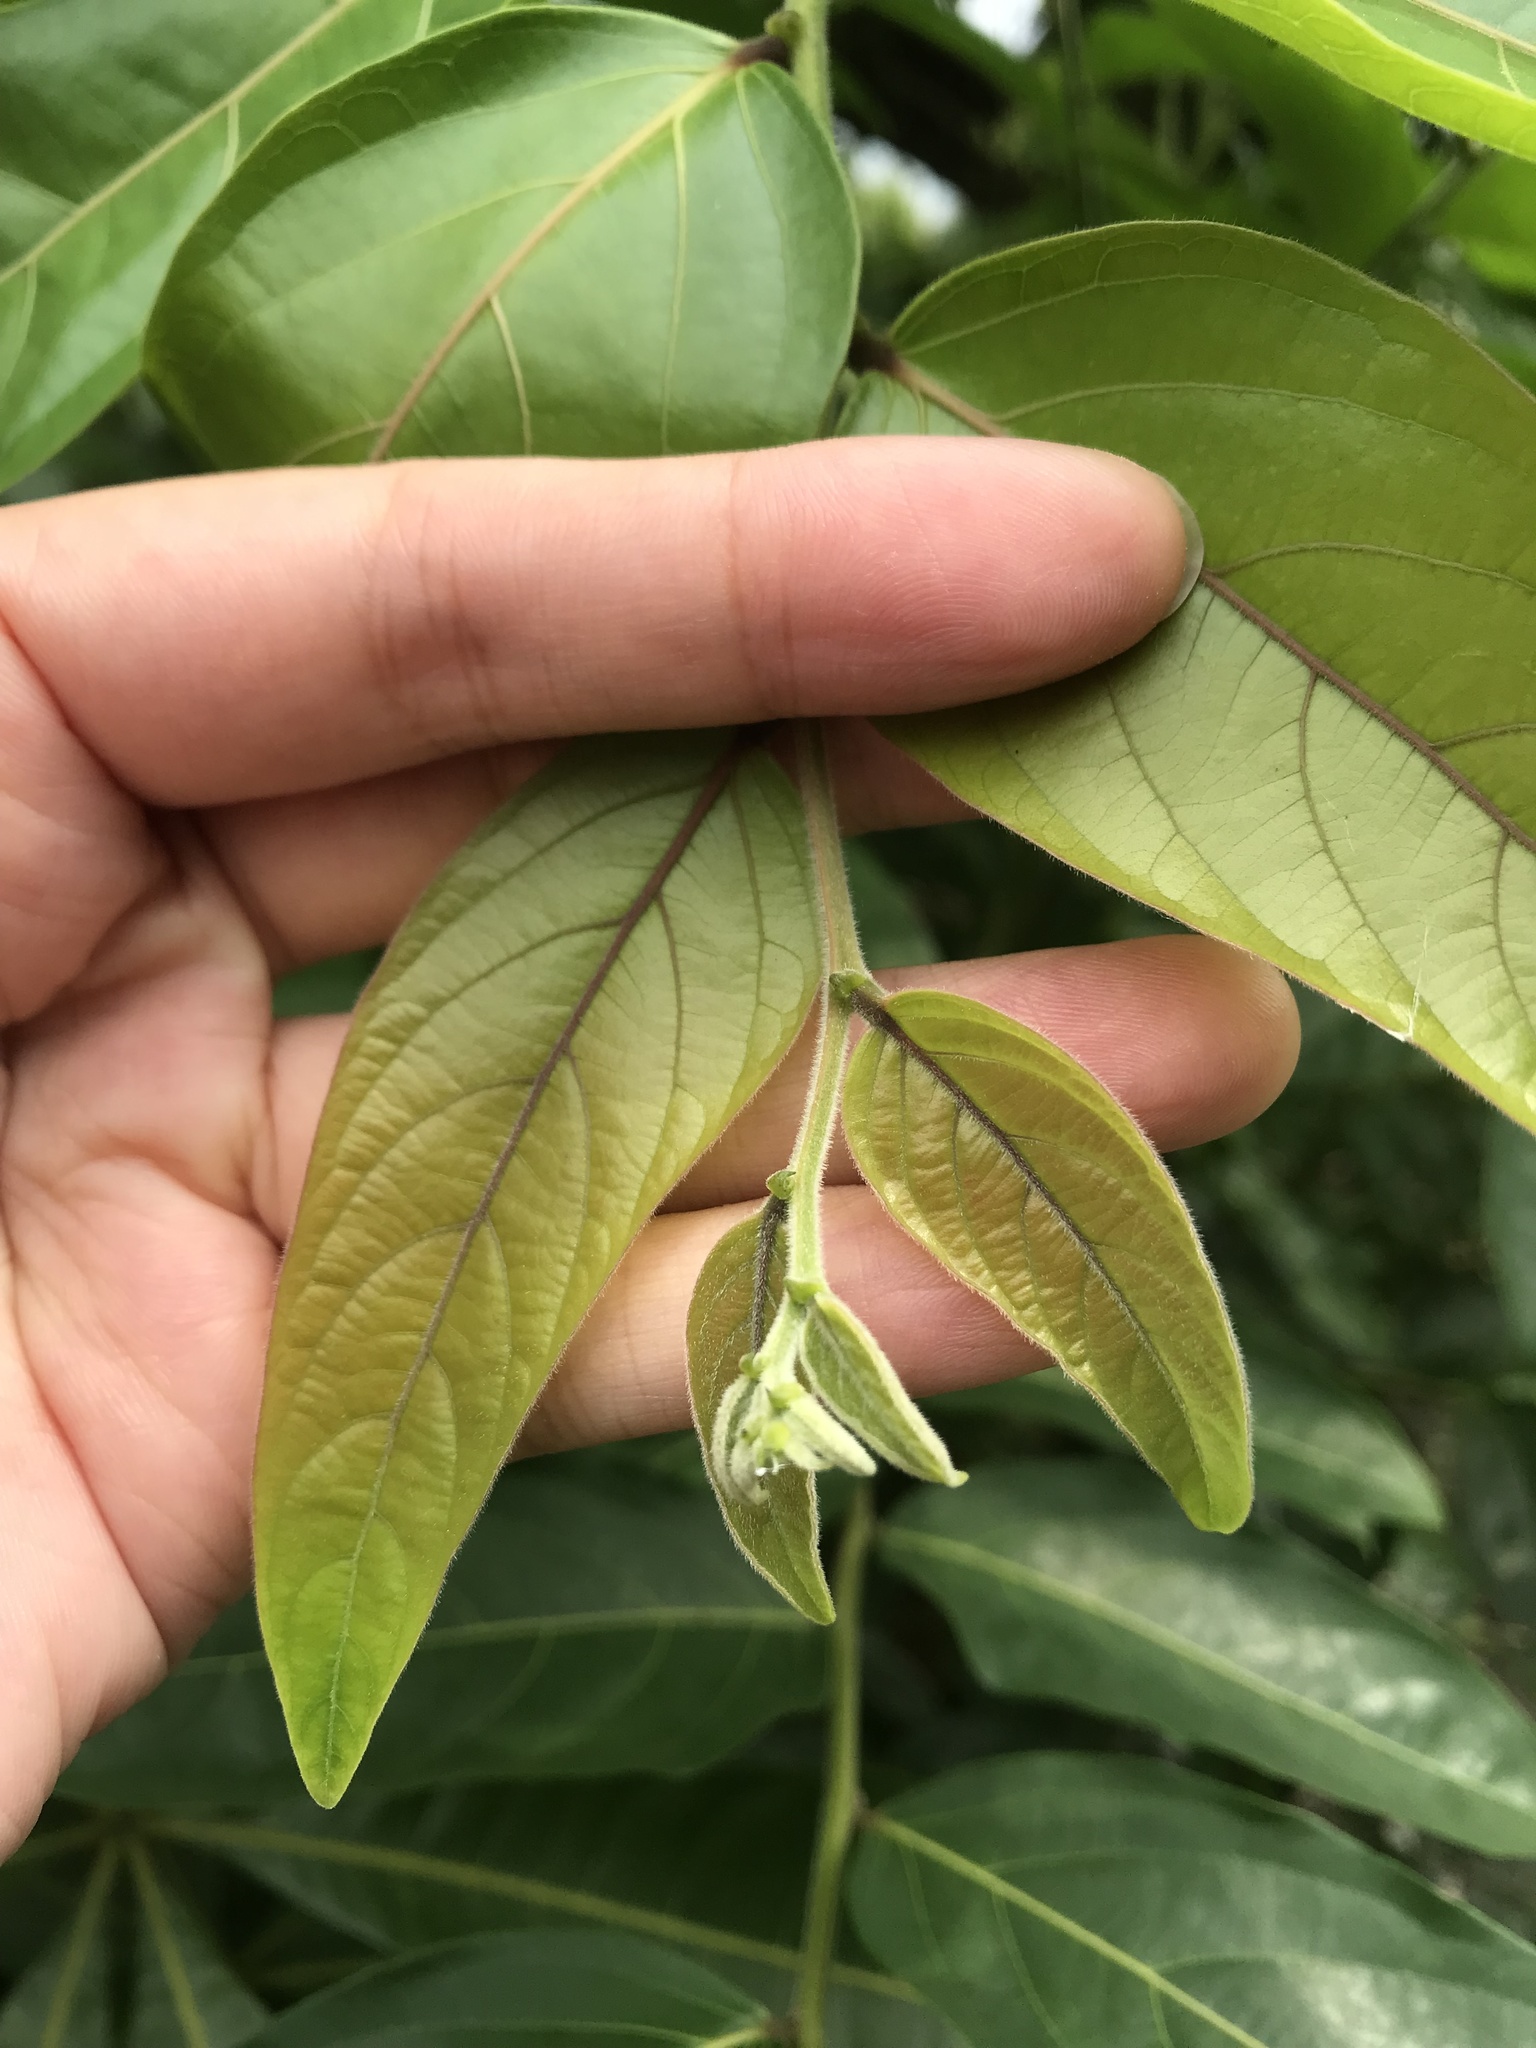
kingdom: Plantae
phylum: Tracheophyta
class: Magnoliopsida
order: Malpighiales
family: Phyllanthaceae
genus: Glochidion
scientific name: Glochidion zeylanicum
